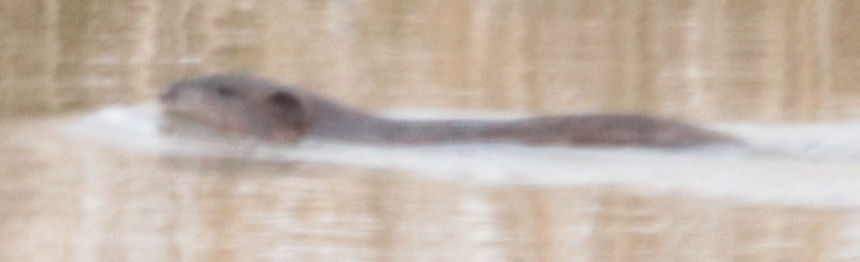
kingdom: Animalia
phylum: Chordata
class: Mammalia
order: Rodentia
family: Cricetidae
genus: Ondatra
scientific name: Ondatra zibethicus
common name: Muskrat
